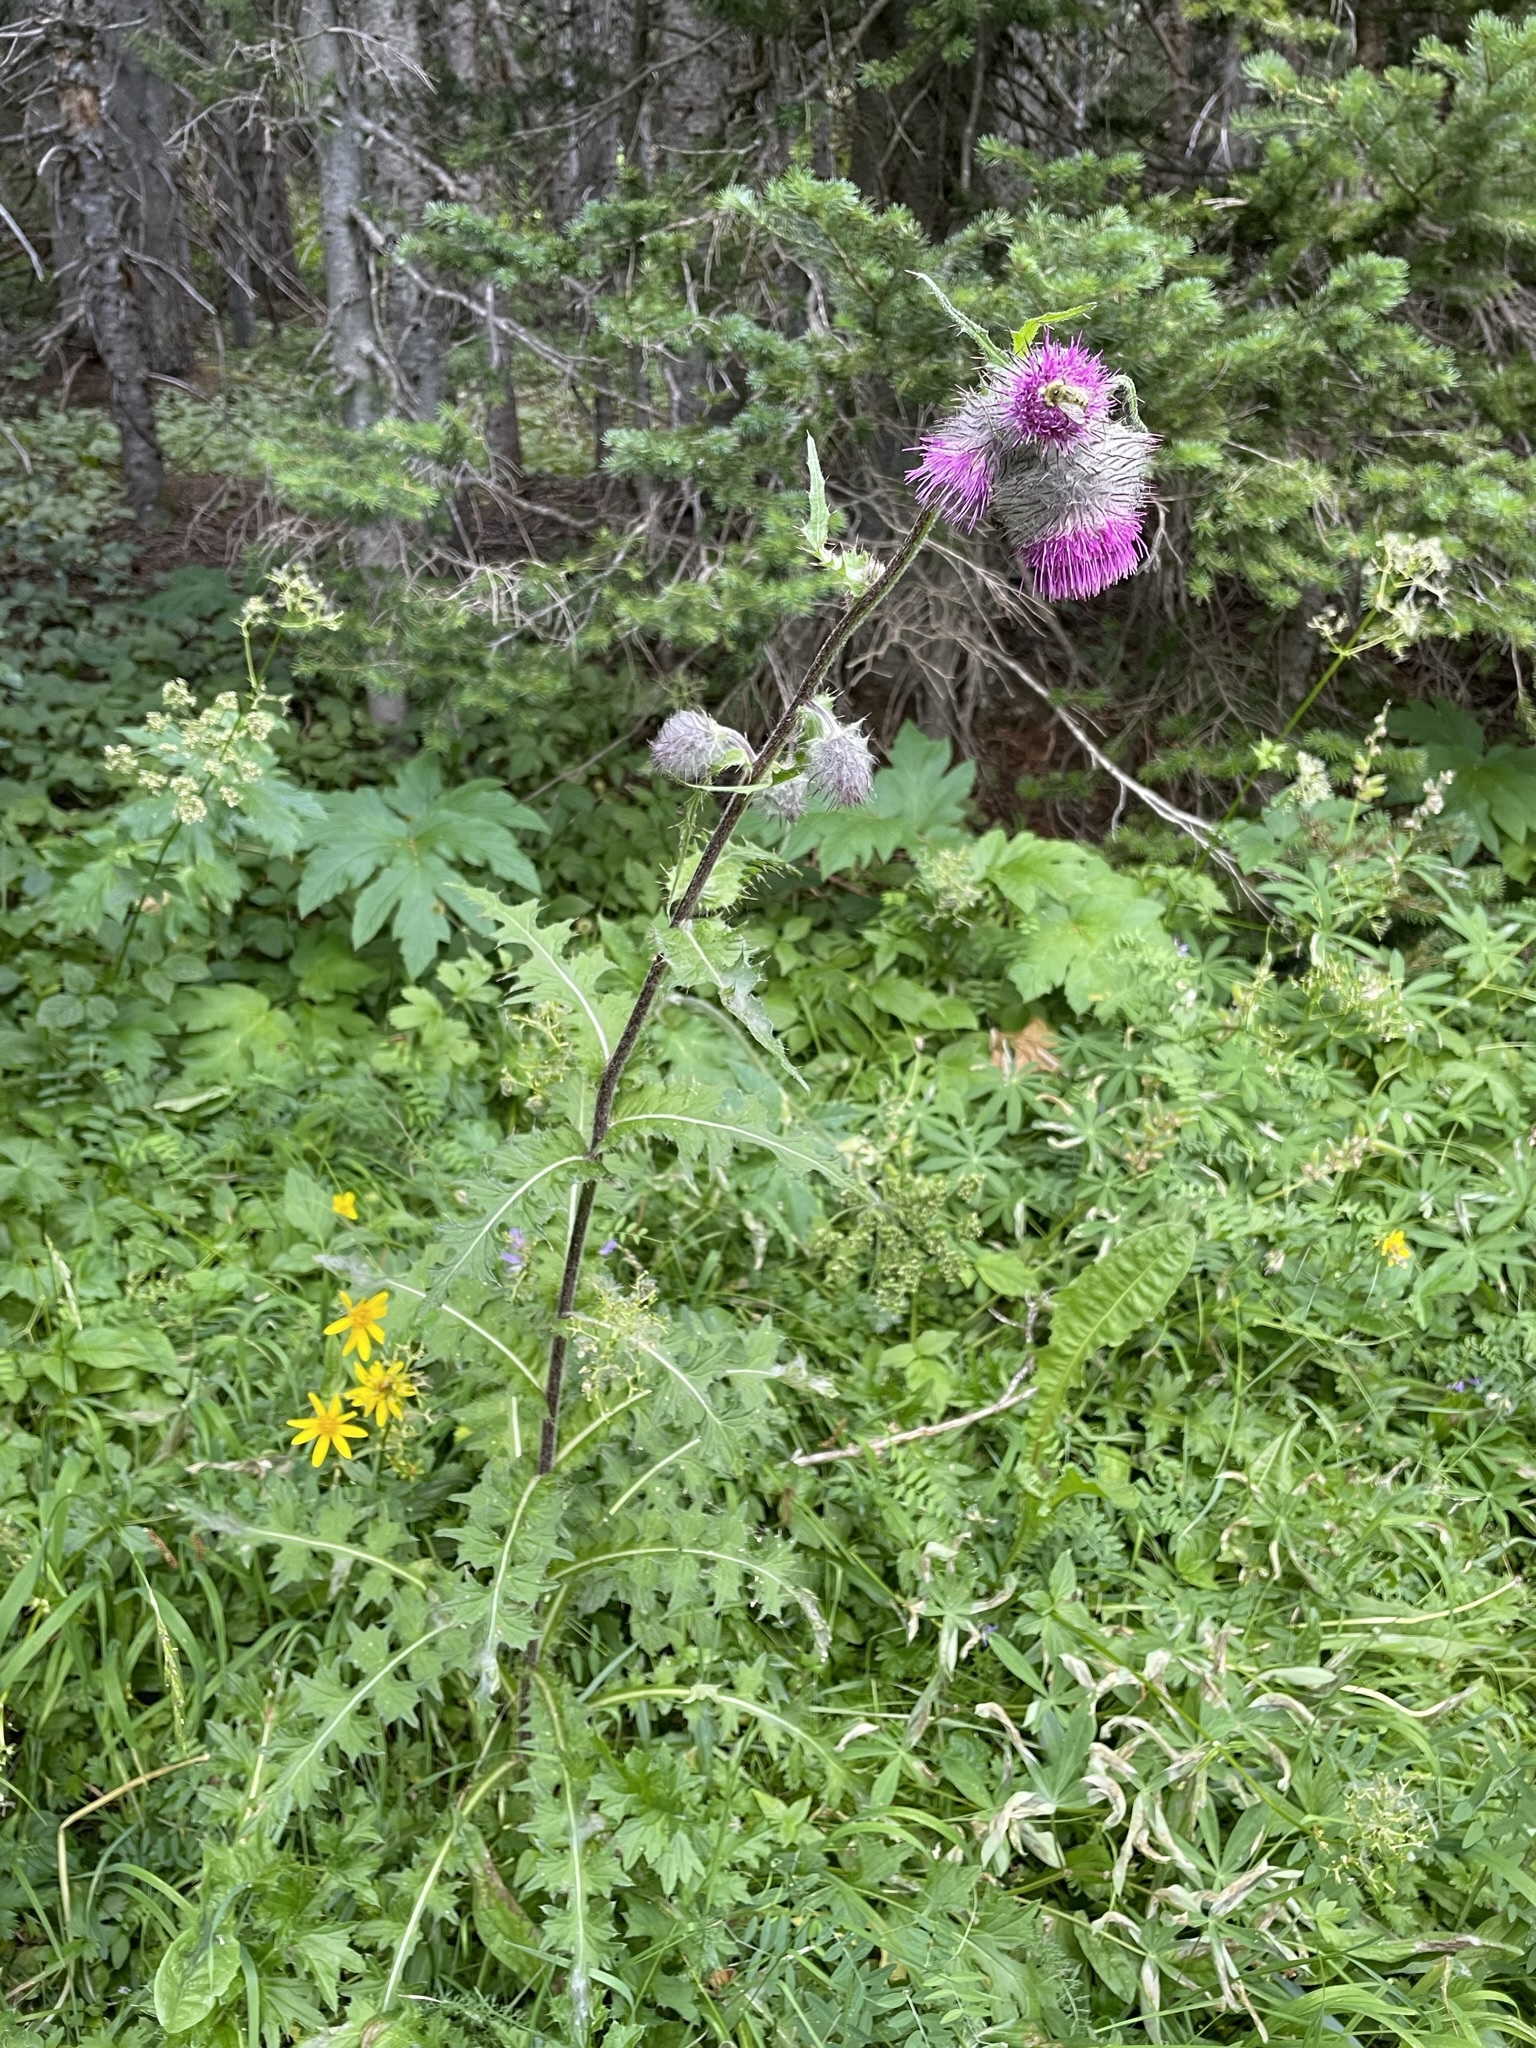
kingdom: Plantae
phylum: Tracheophyta
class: Magnoliopsida
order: Asterales
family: Asteraceae
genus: Cirsium
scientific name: Cirsium edule
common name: Indian thistle
